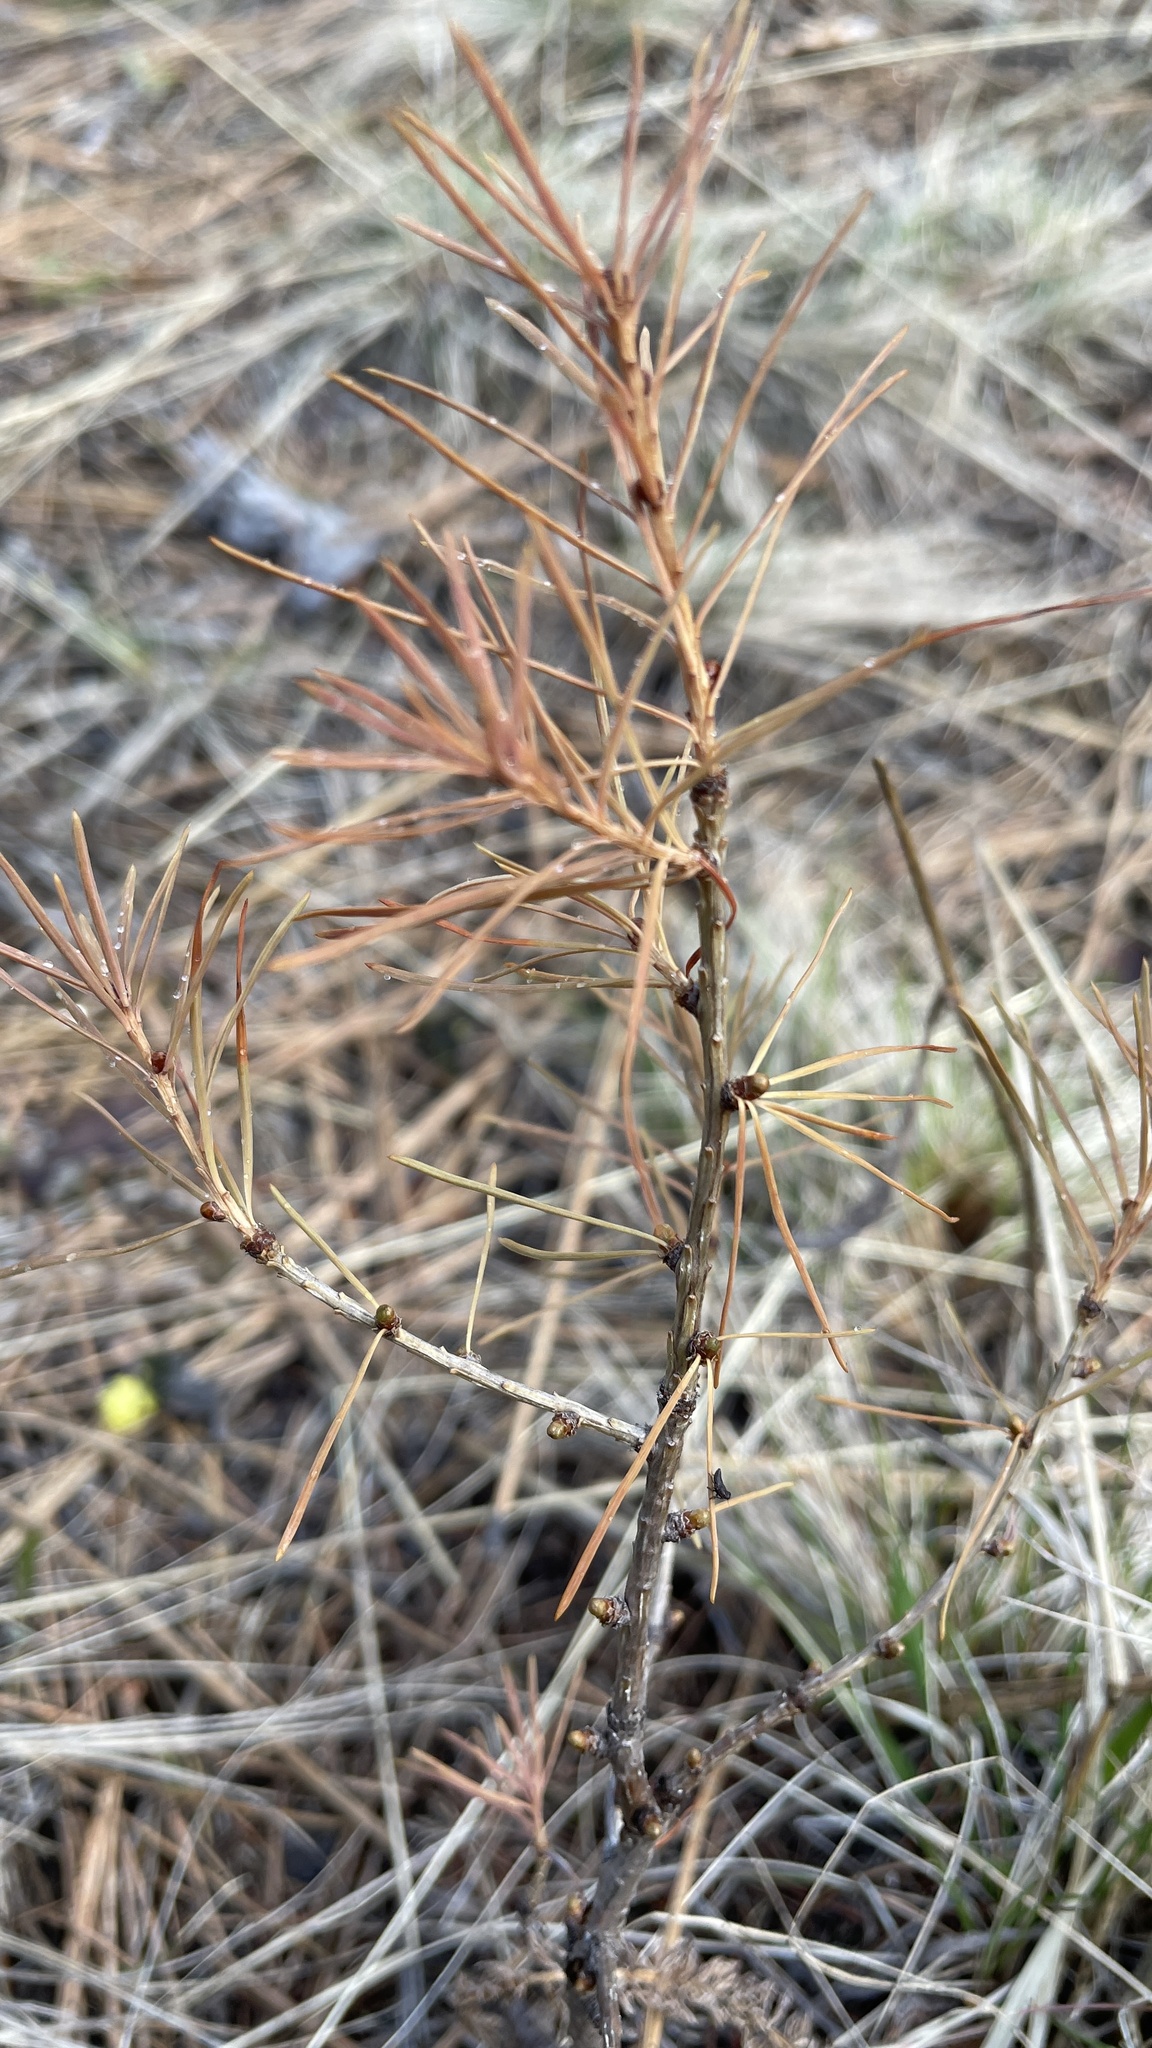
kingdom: Plantae
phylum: Tracheophyta
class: Pinopsida
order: Pinales
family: Pinaceae
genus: Larix
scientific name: Larix occidentalis
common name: Western larch
